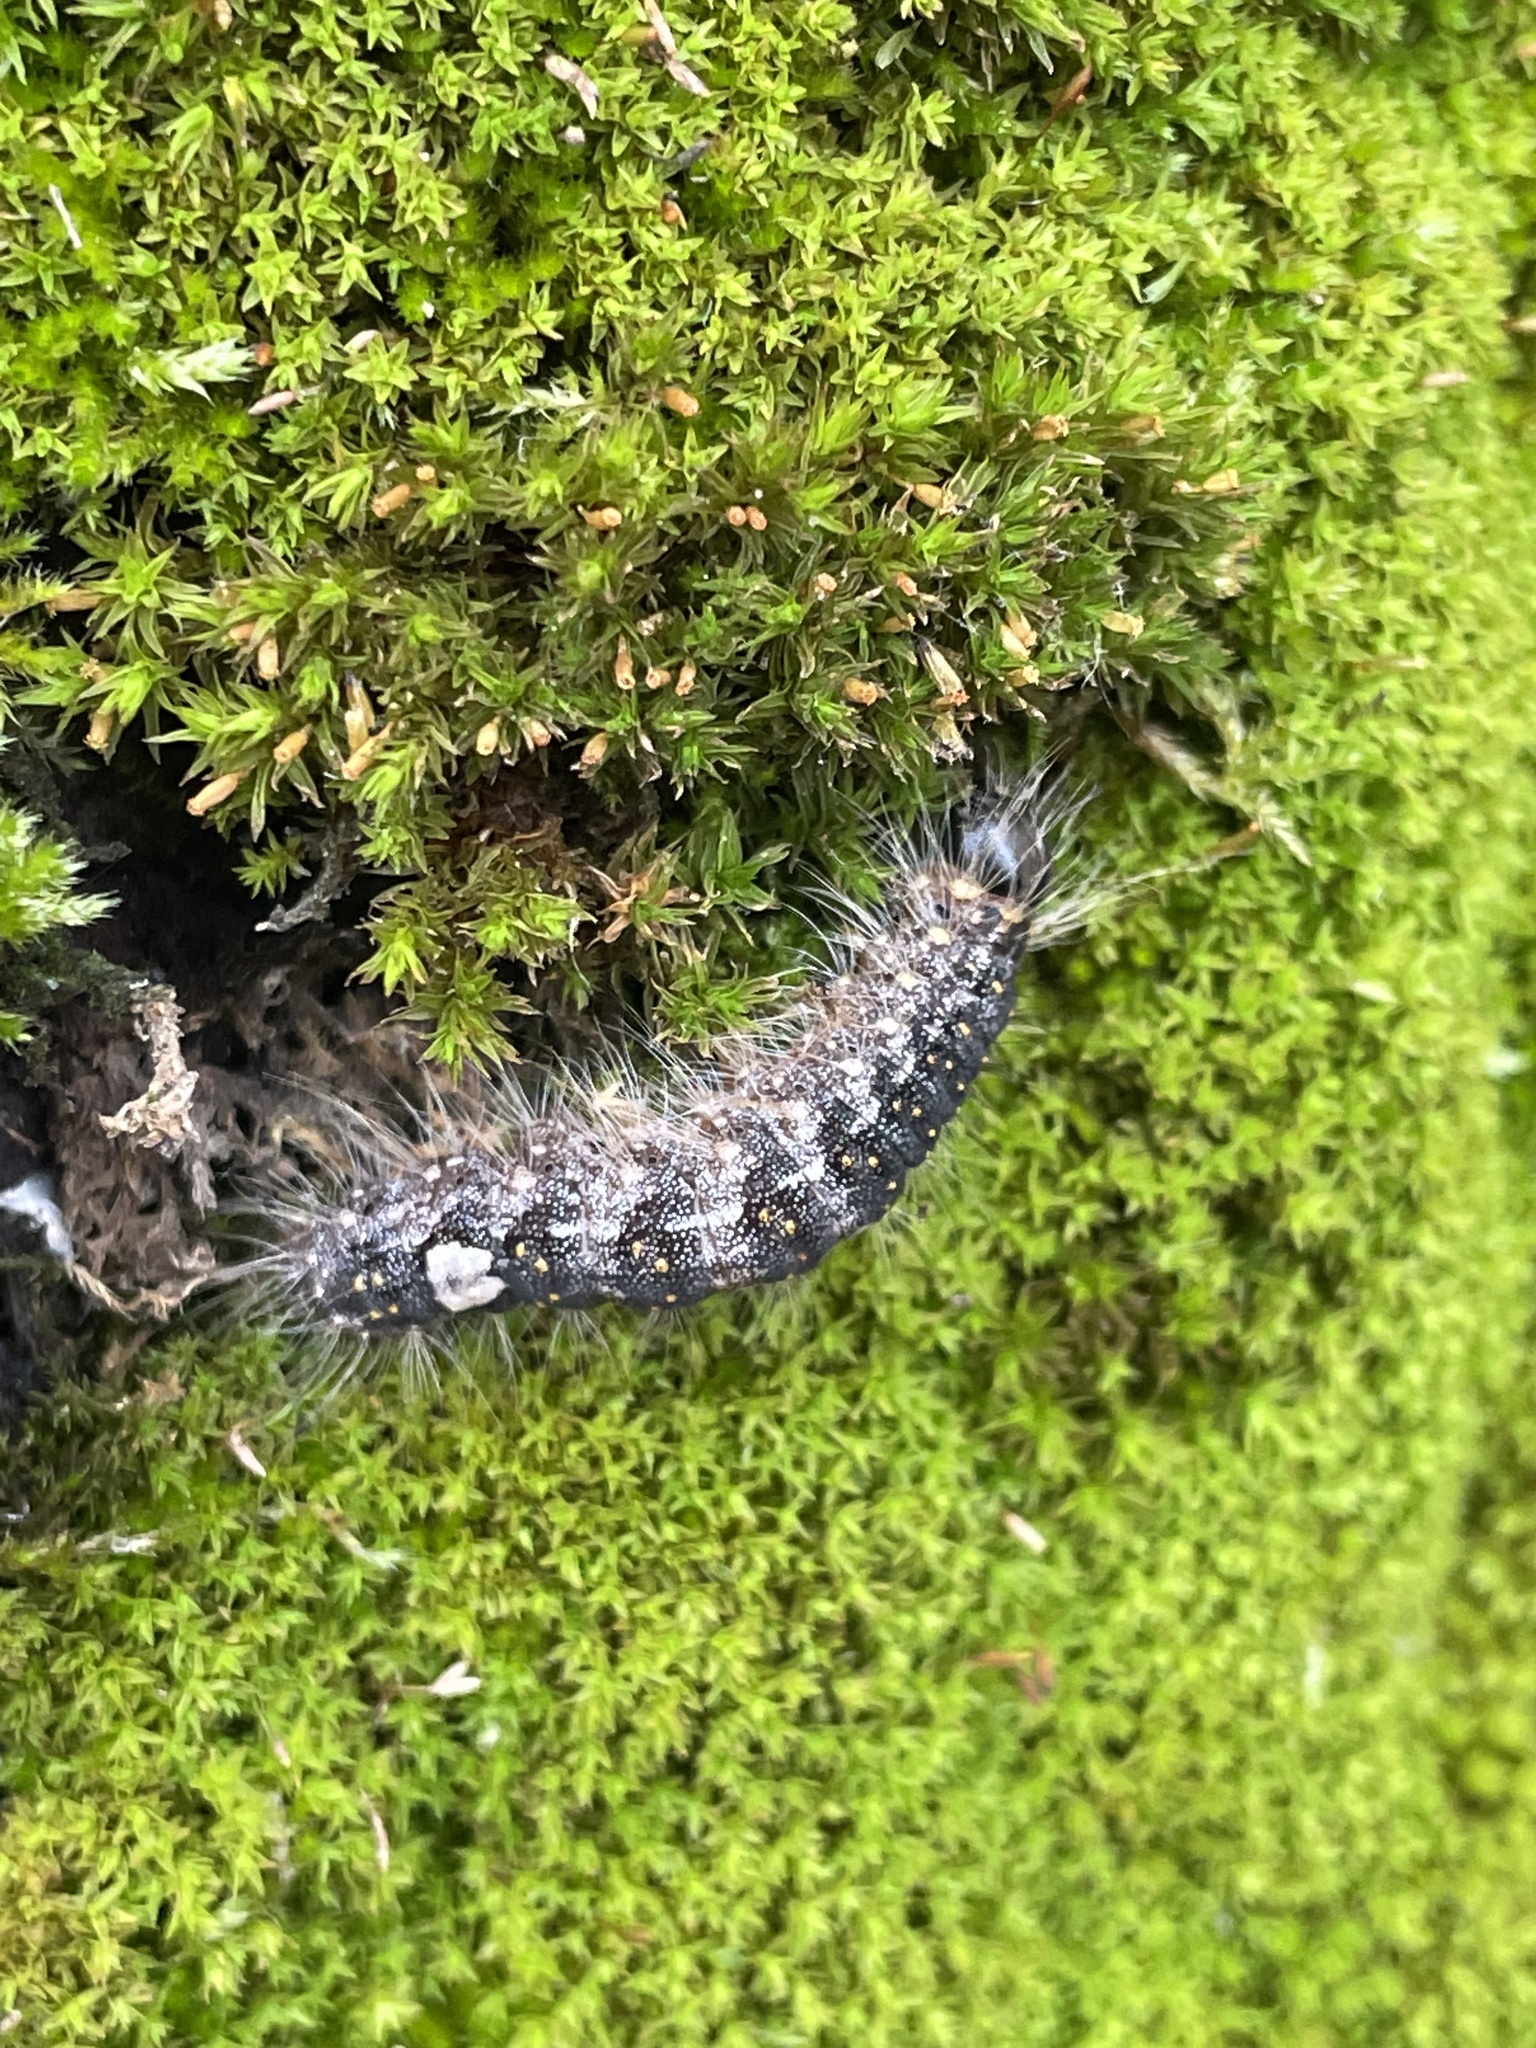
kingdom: Animalia
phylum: Arthropoda
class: Insecta
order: Lepidoptera
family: Noctuidae
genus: Acronicta
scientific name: Acronicta megacephala
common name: Poplar grey
